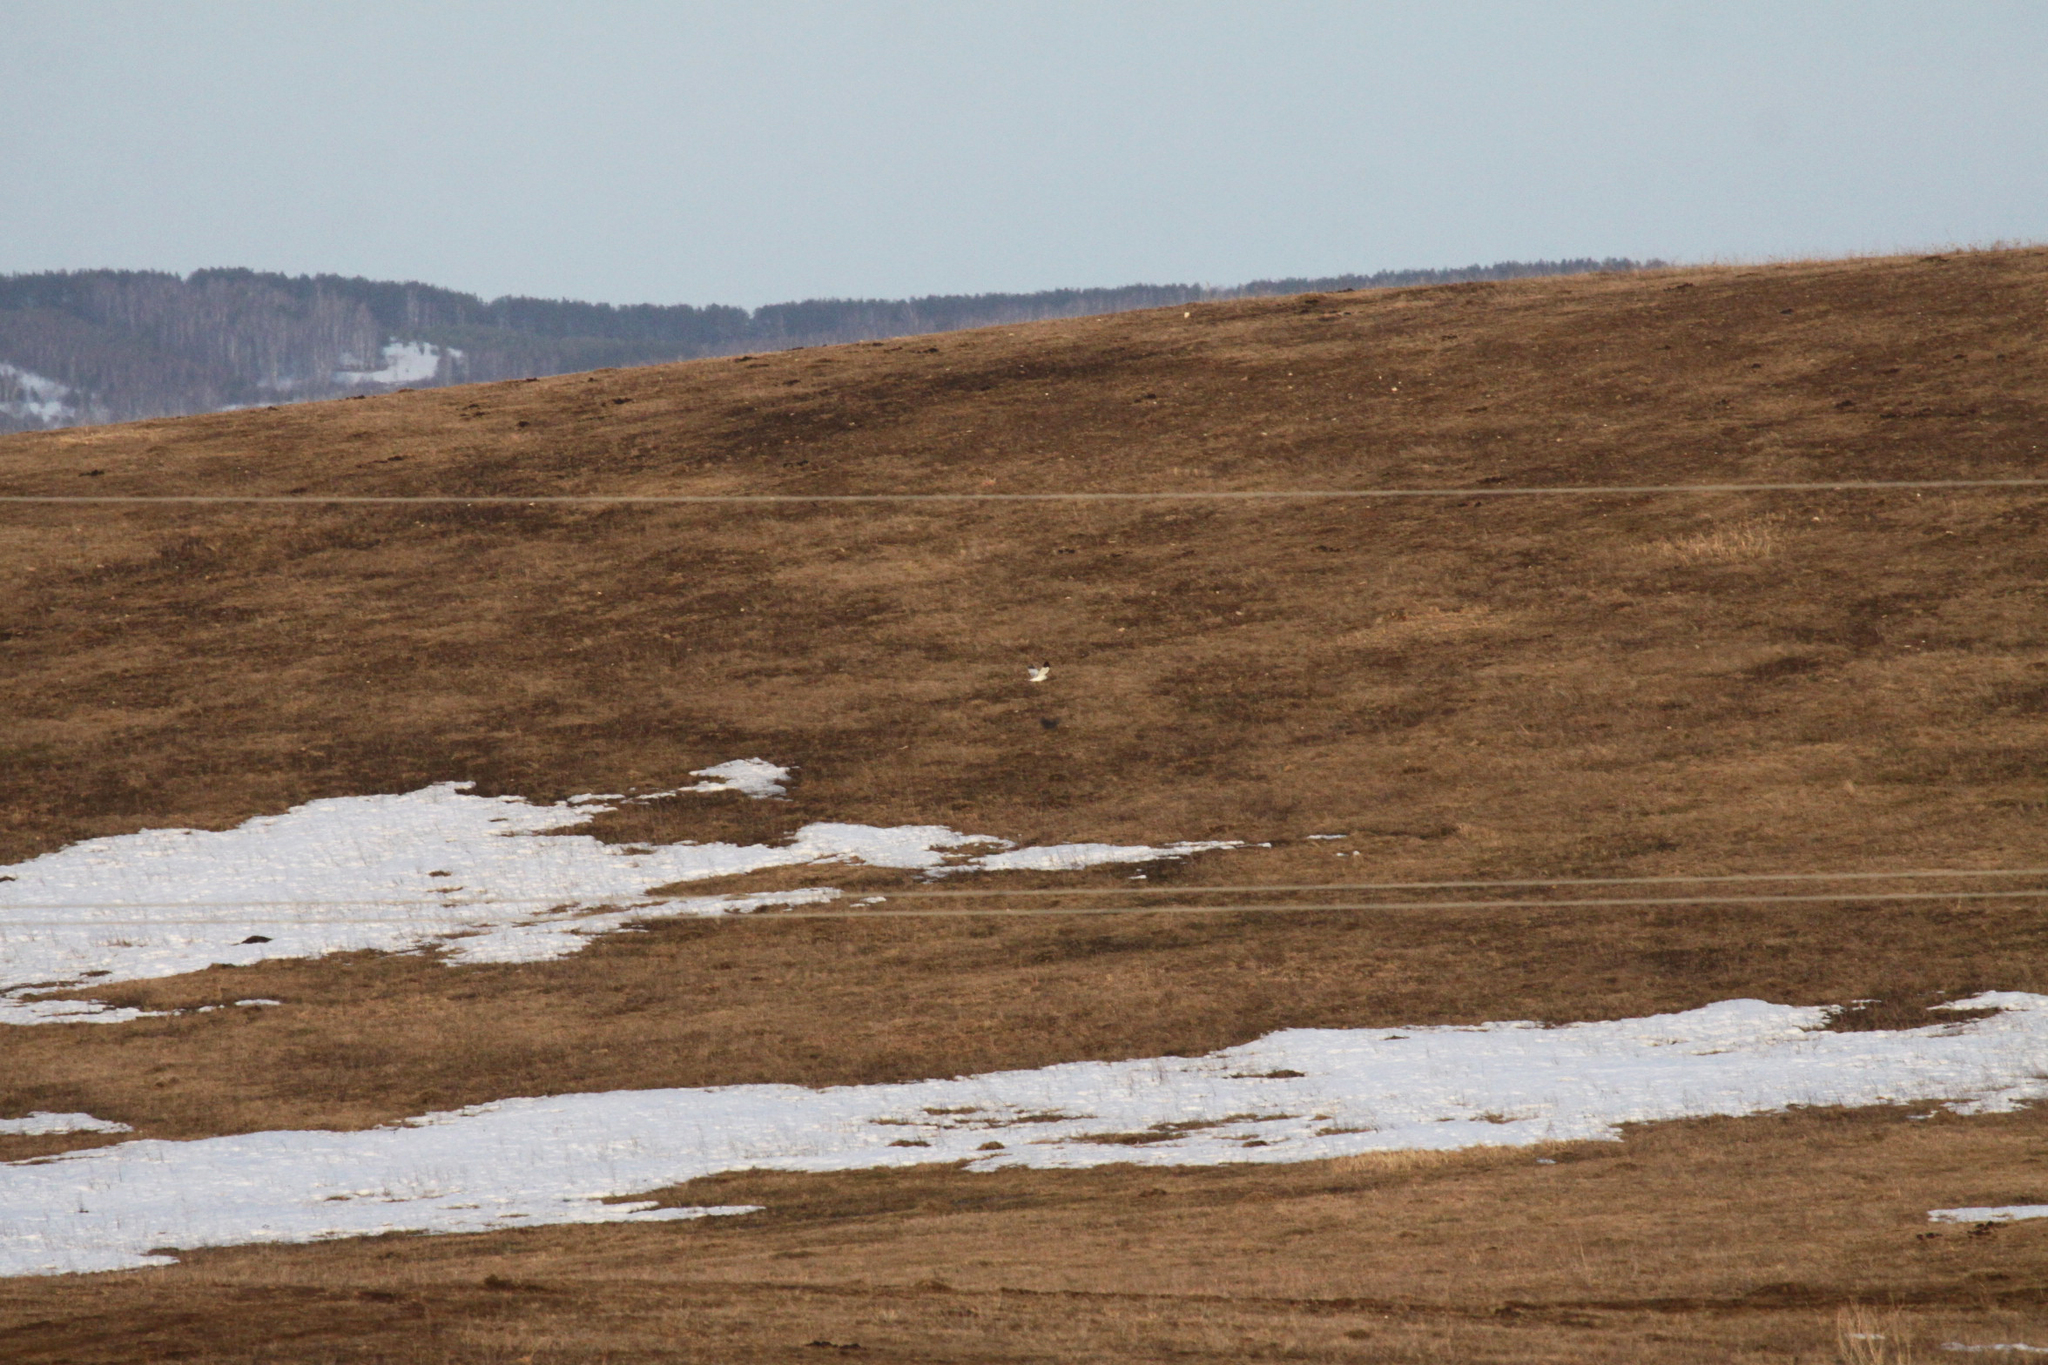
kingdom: Animalia
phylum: Chordata
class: Aves
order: Accipitriformes
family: Accipitridae
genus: Circus
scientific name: Circus cyaneus
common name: Hen harrier
